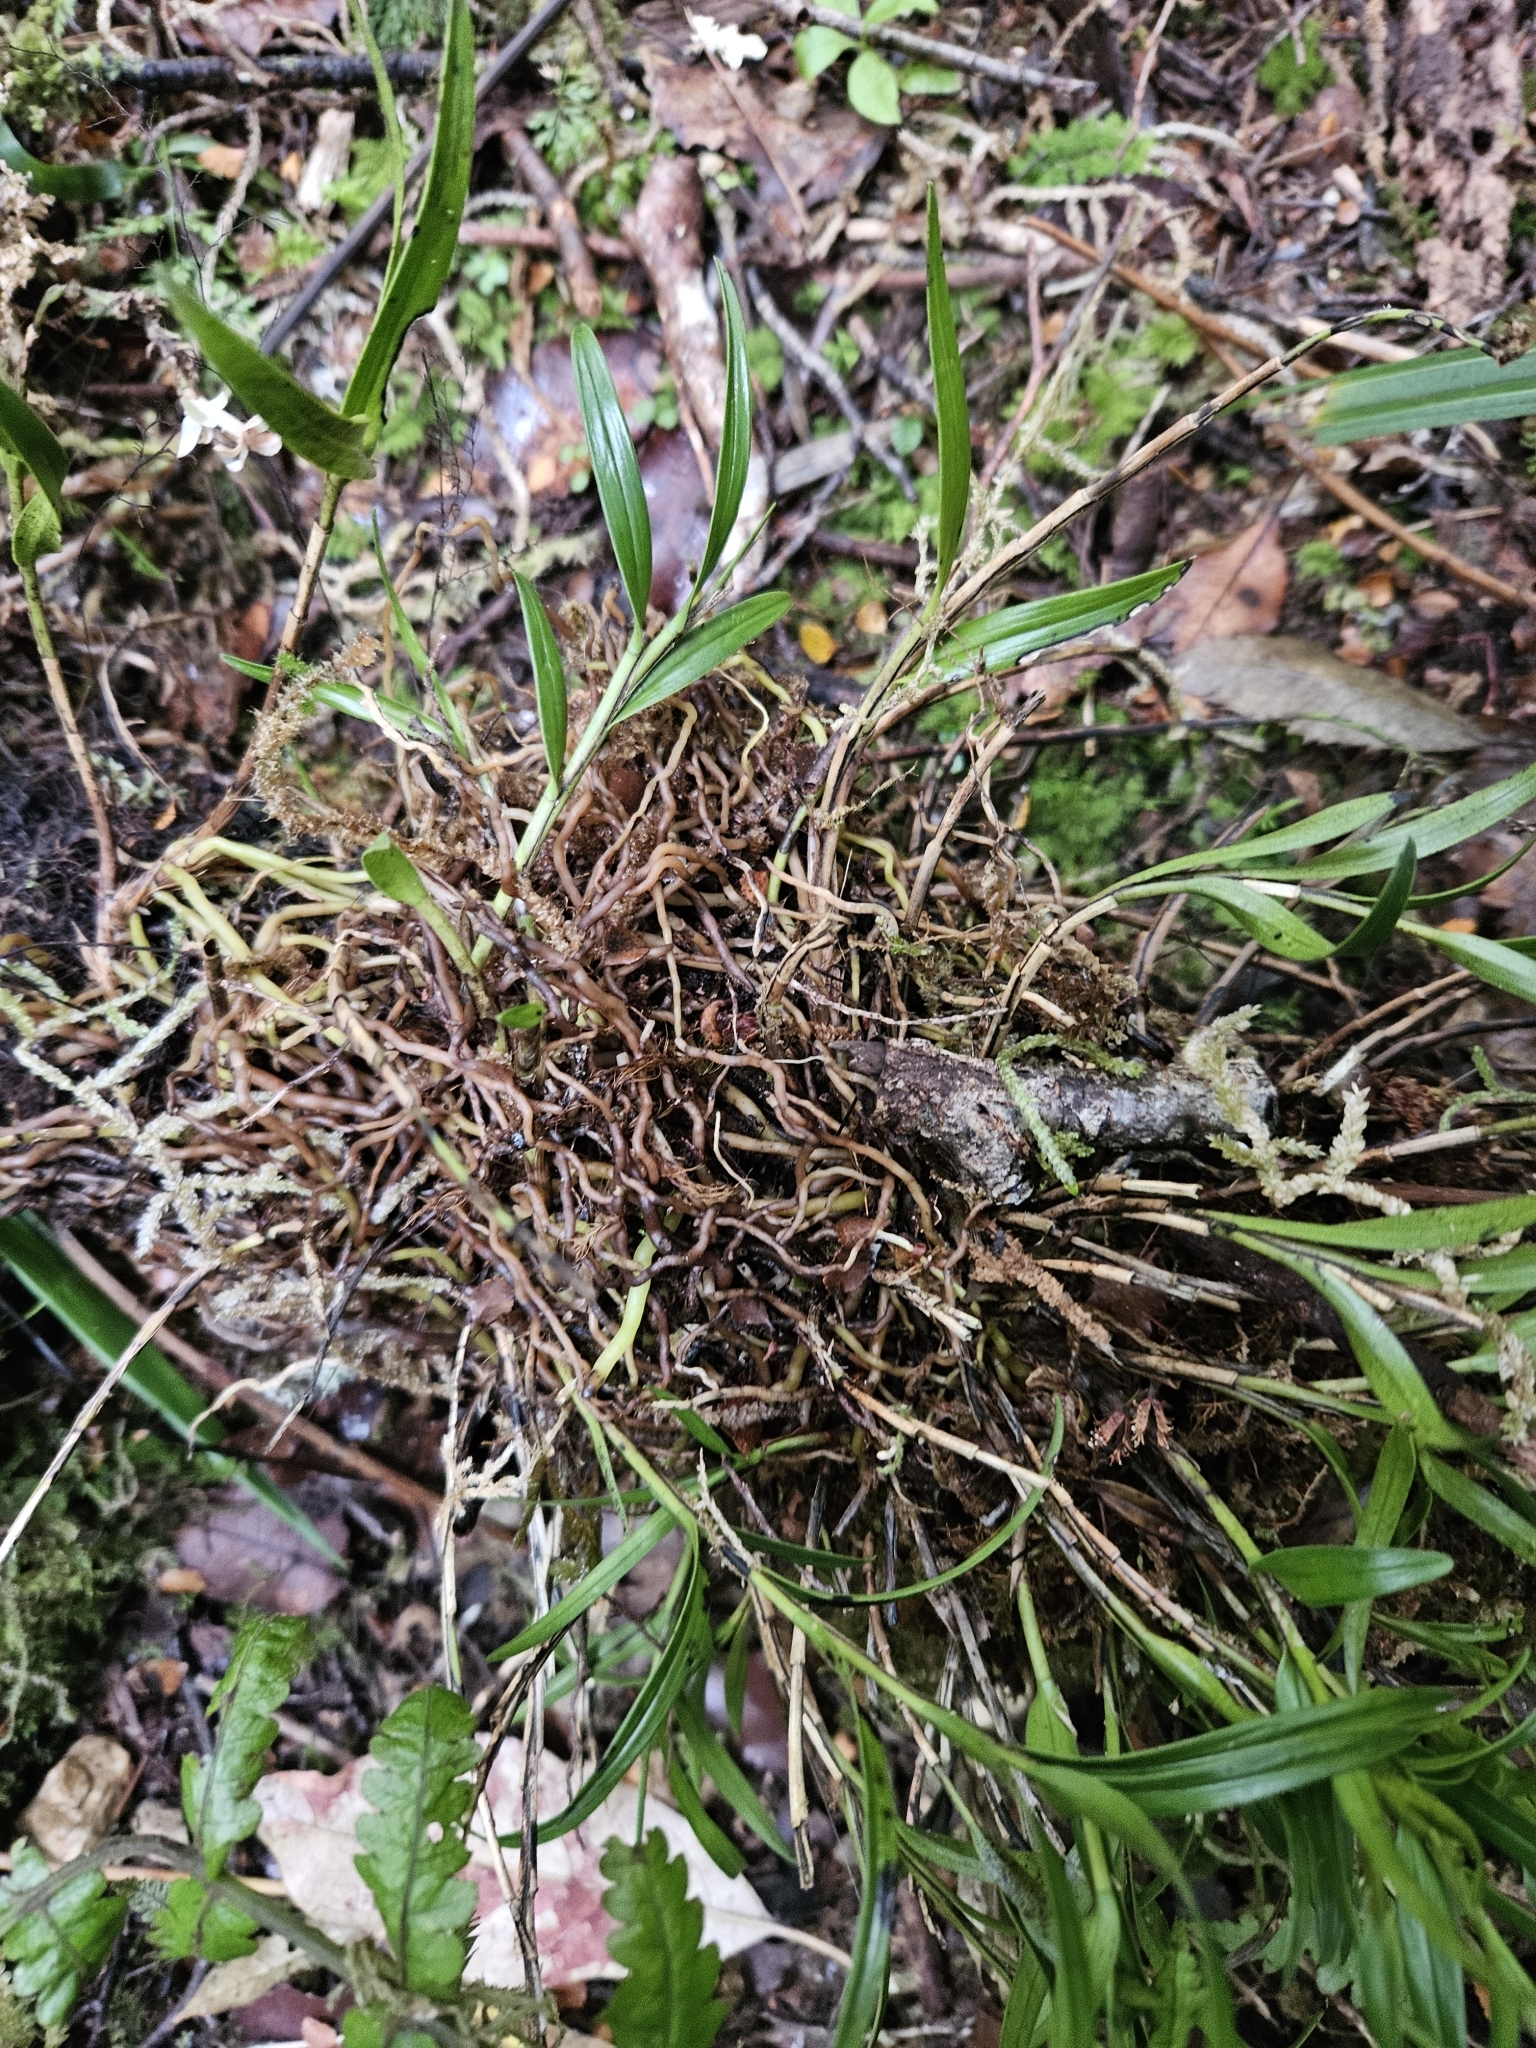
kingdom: Plantae
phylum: Tracheophyta
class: Liliopsida
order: Asparagales
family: Orchidaceae
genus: Earina
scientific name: Earina autumnalis
